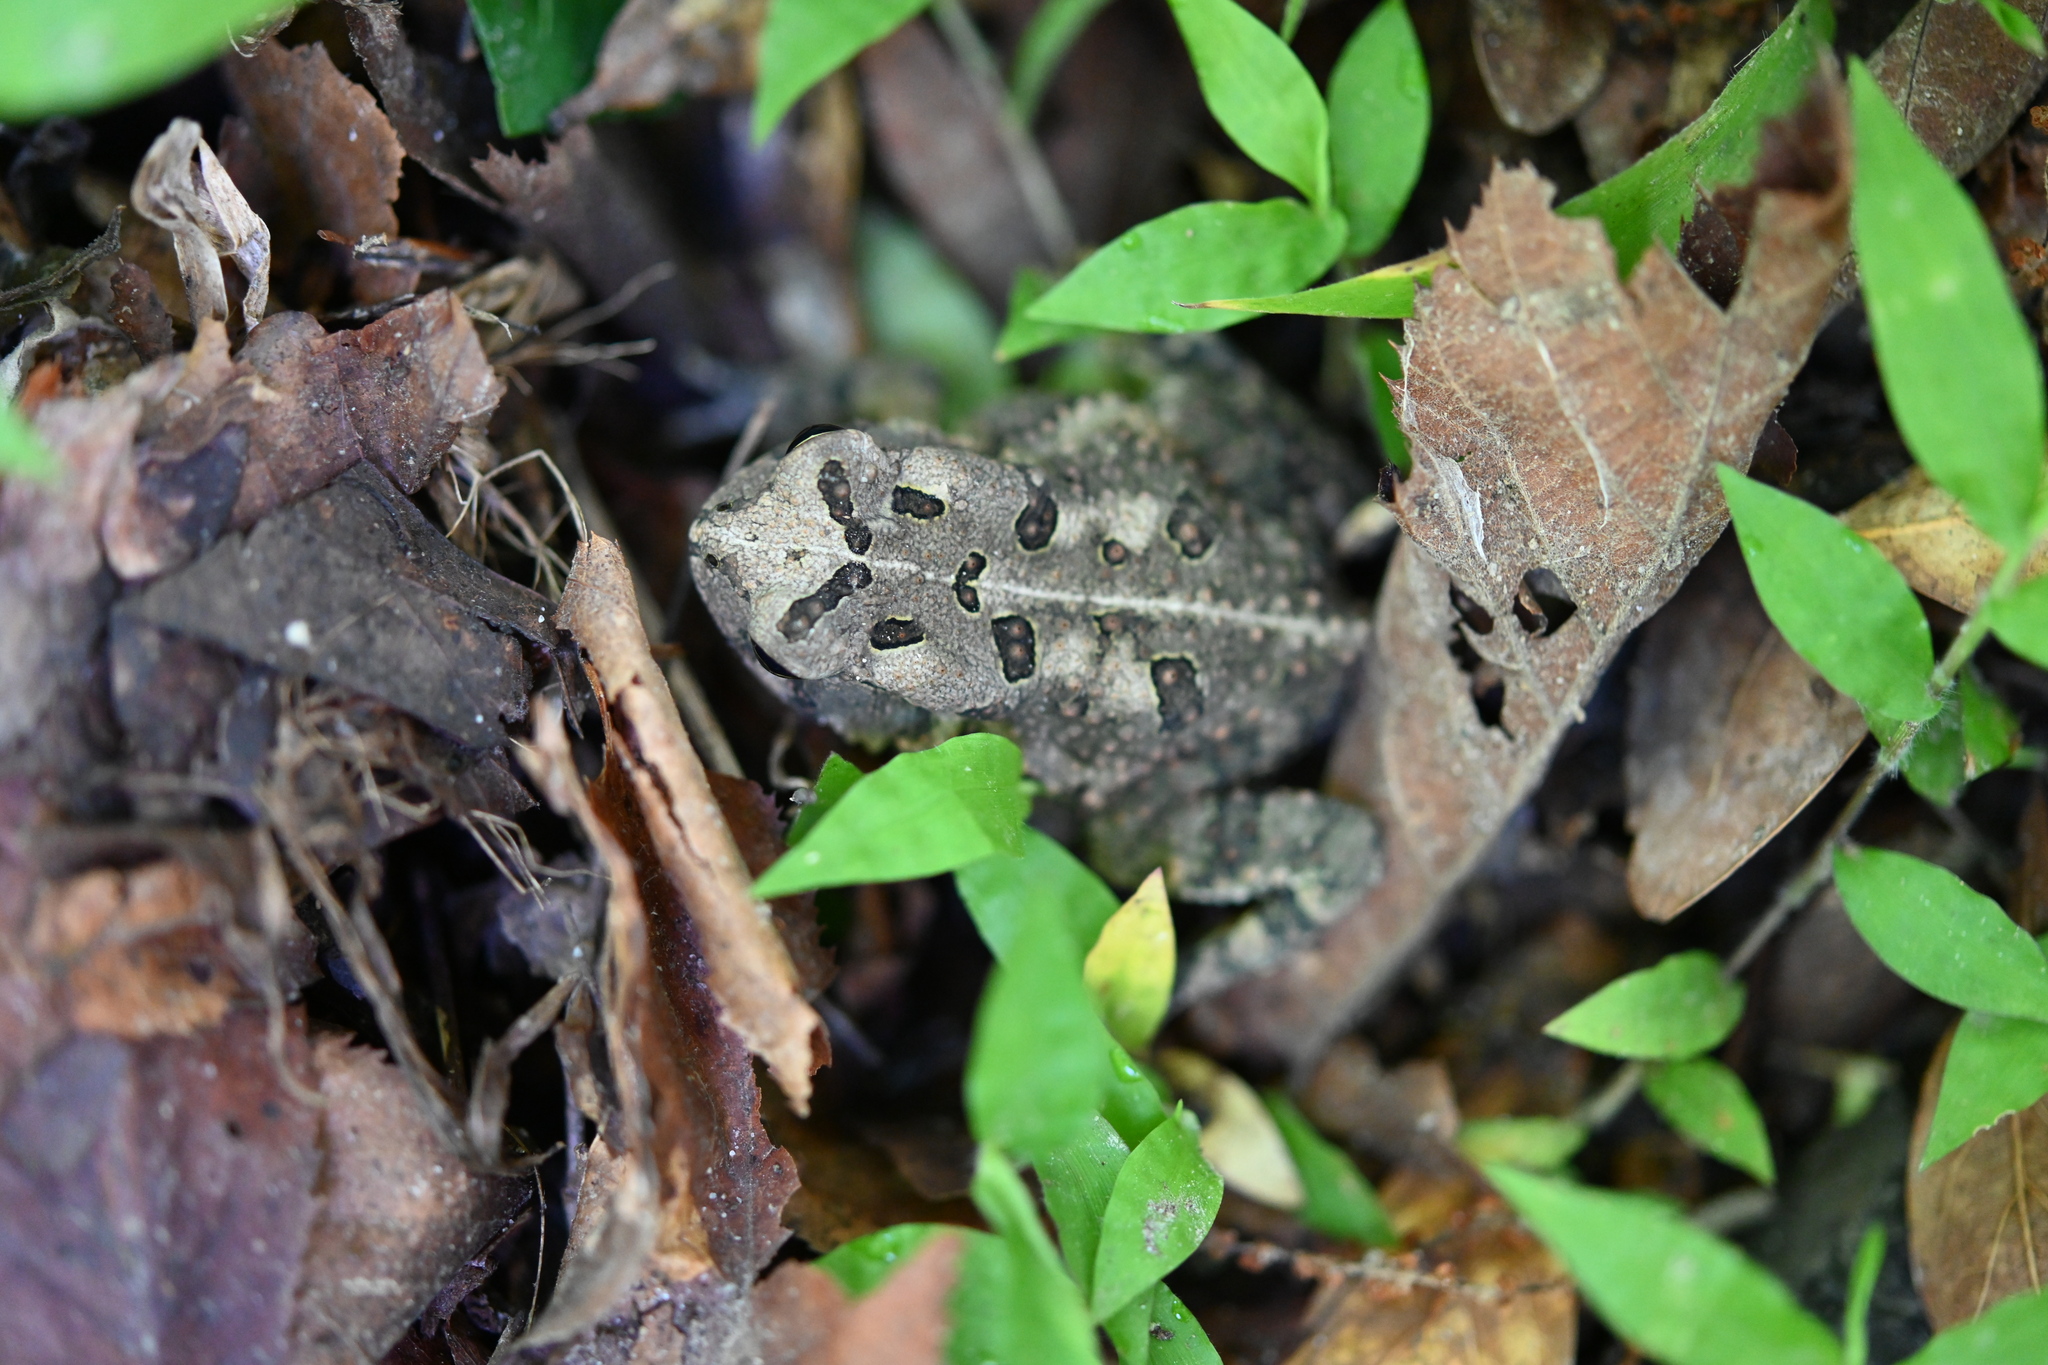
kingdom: Animalia
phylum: Chordata
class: Amphibia
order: Anura
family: Bufonidae
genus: Anaxyrus
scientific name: Anaxyrus fowleri
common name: Fowler's toad
